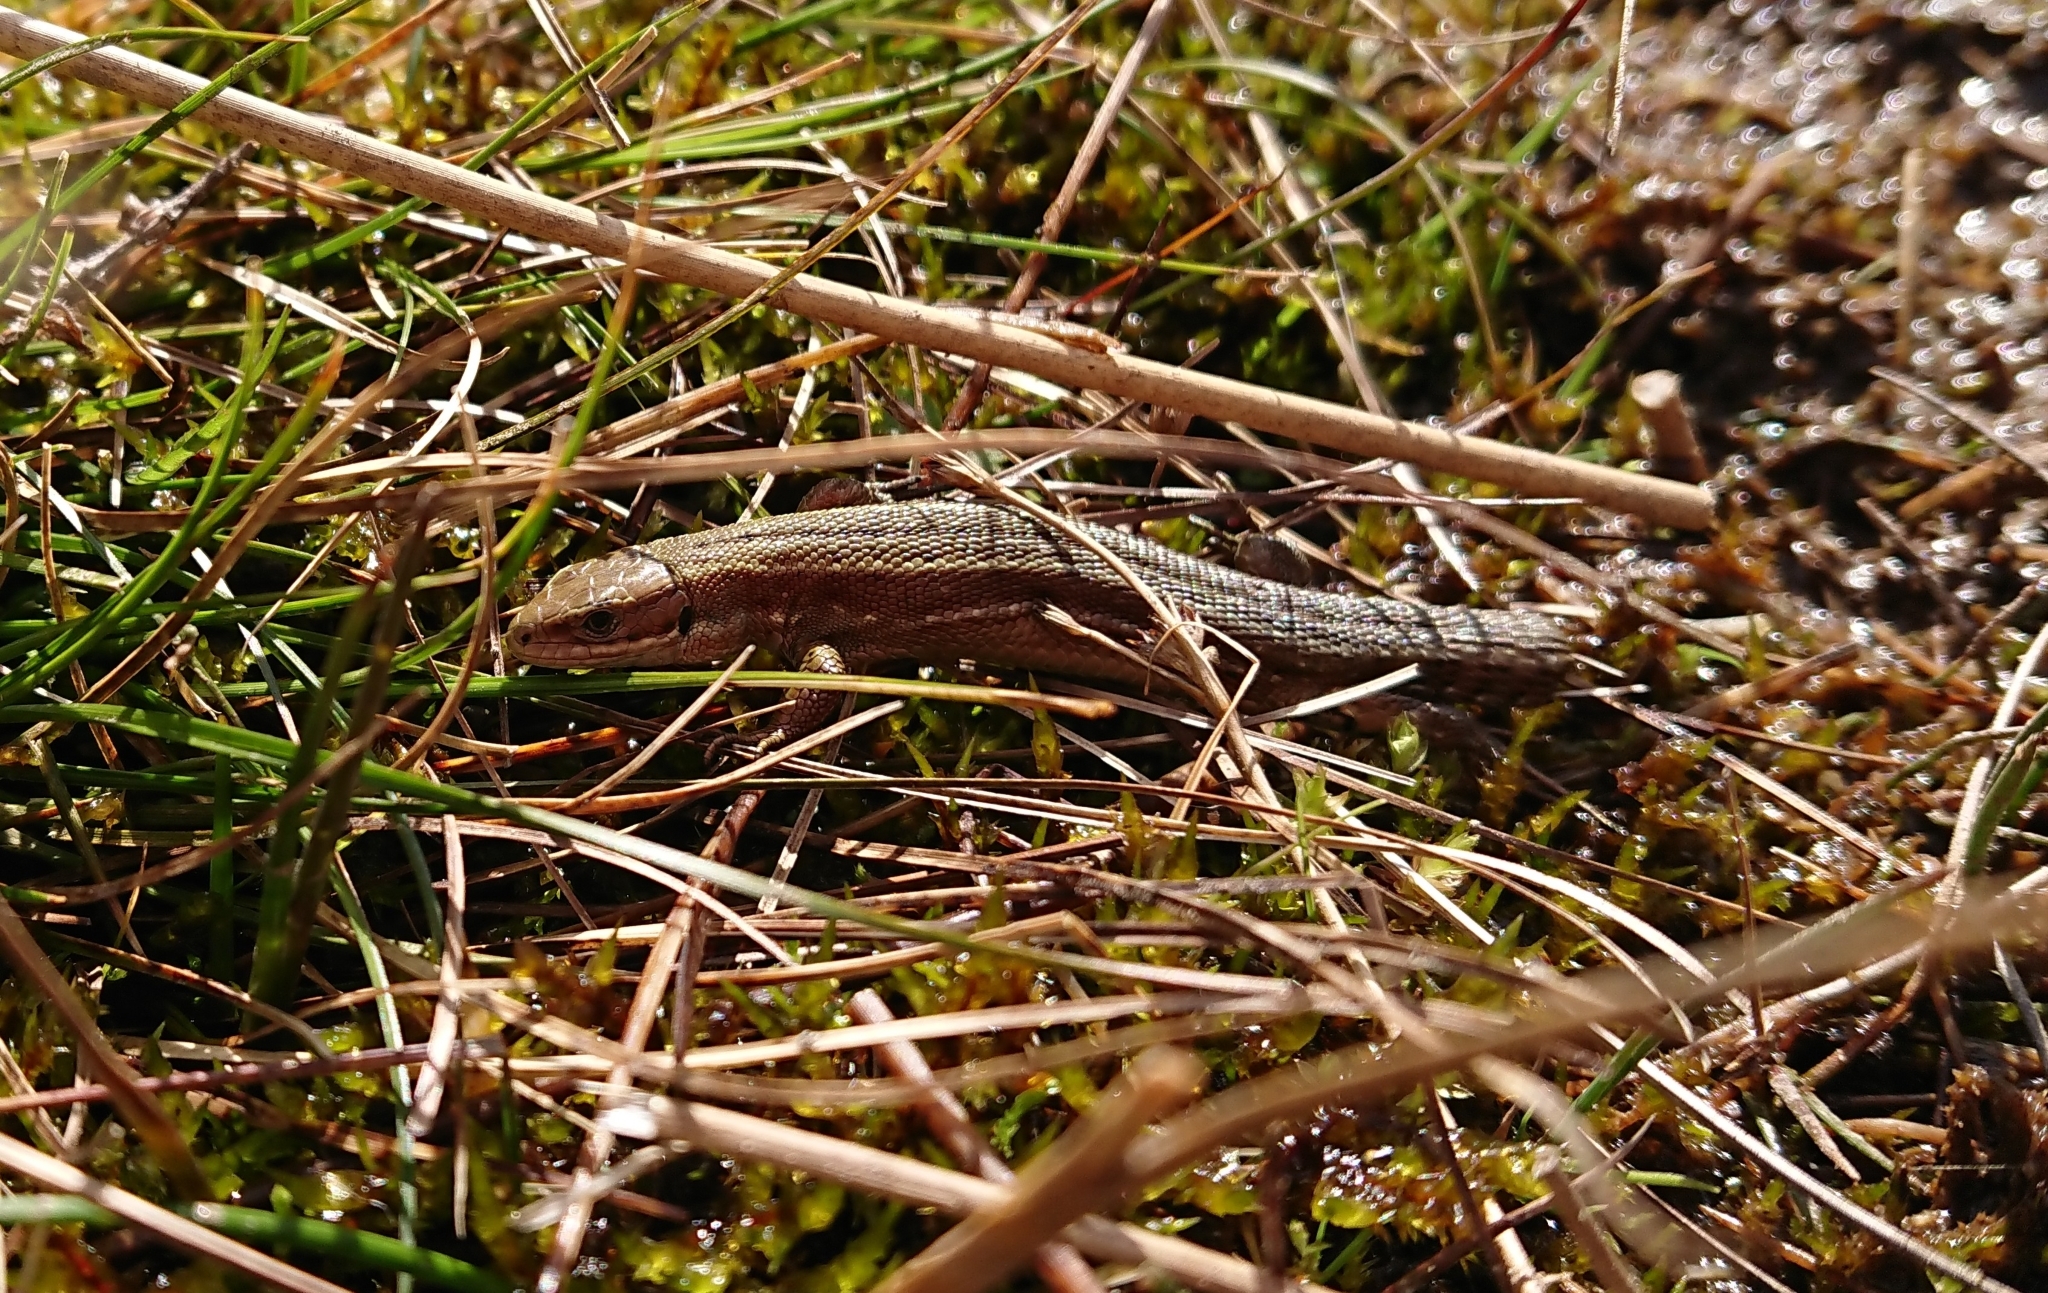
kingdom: Animalia
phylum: Chordata
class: Squamata
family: Lacertidae
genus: Zootoca
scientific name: Zootoca vivipara
